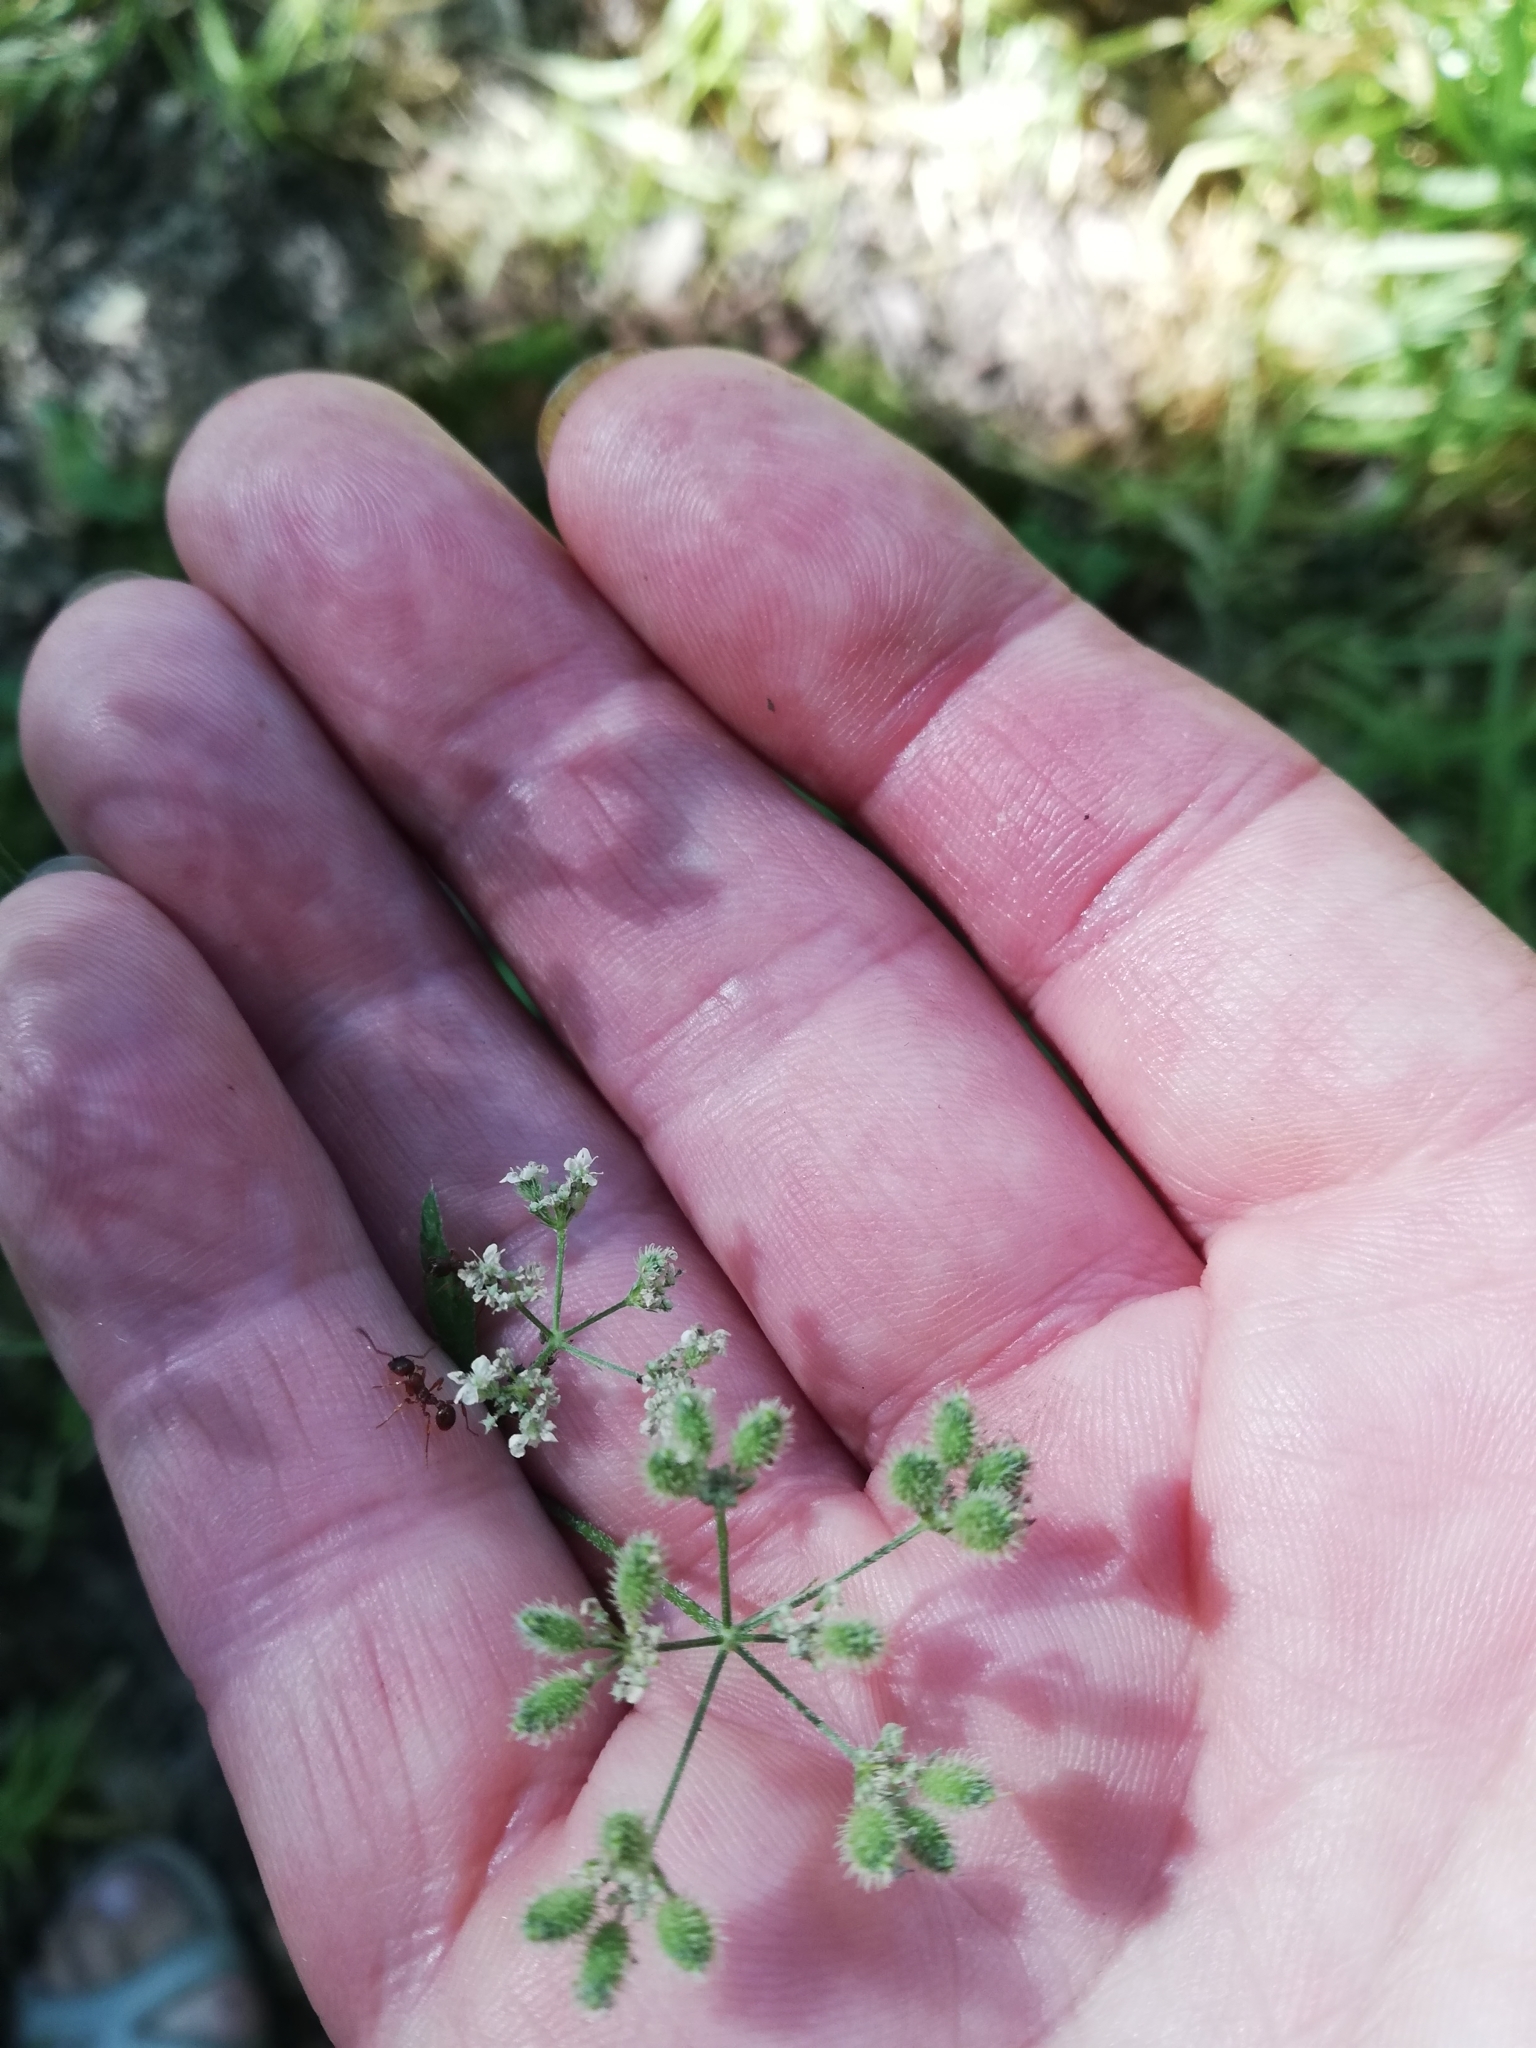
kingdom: Plantae
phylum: Tracheophyta
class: Magnoliopsida
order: Apiales
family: Apiaceae
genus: Torilis
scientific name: Torilis japonica
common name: Upright hedge-parsley
